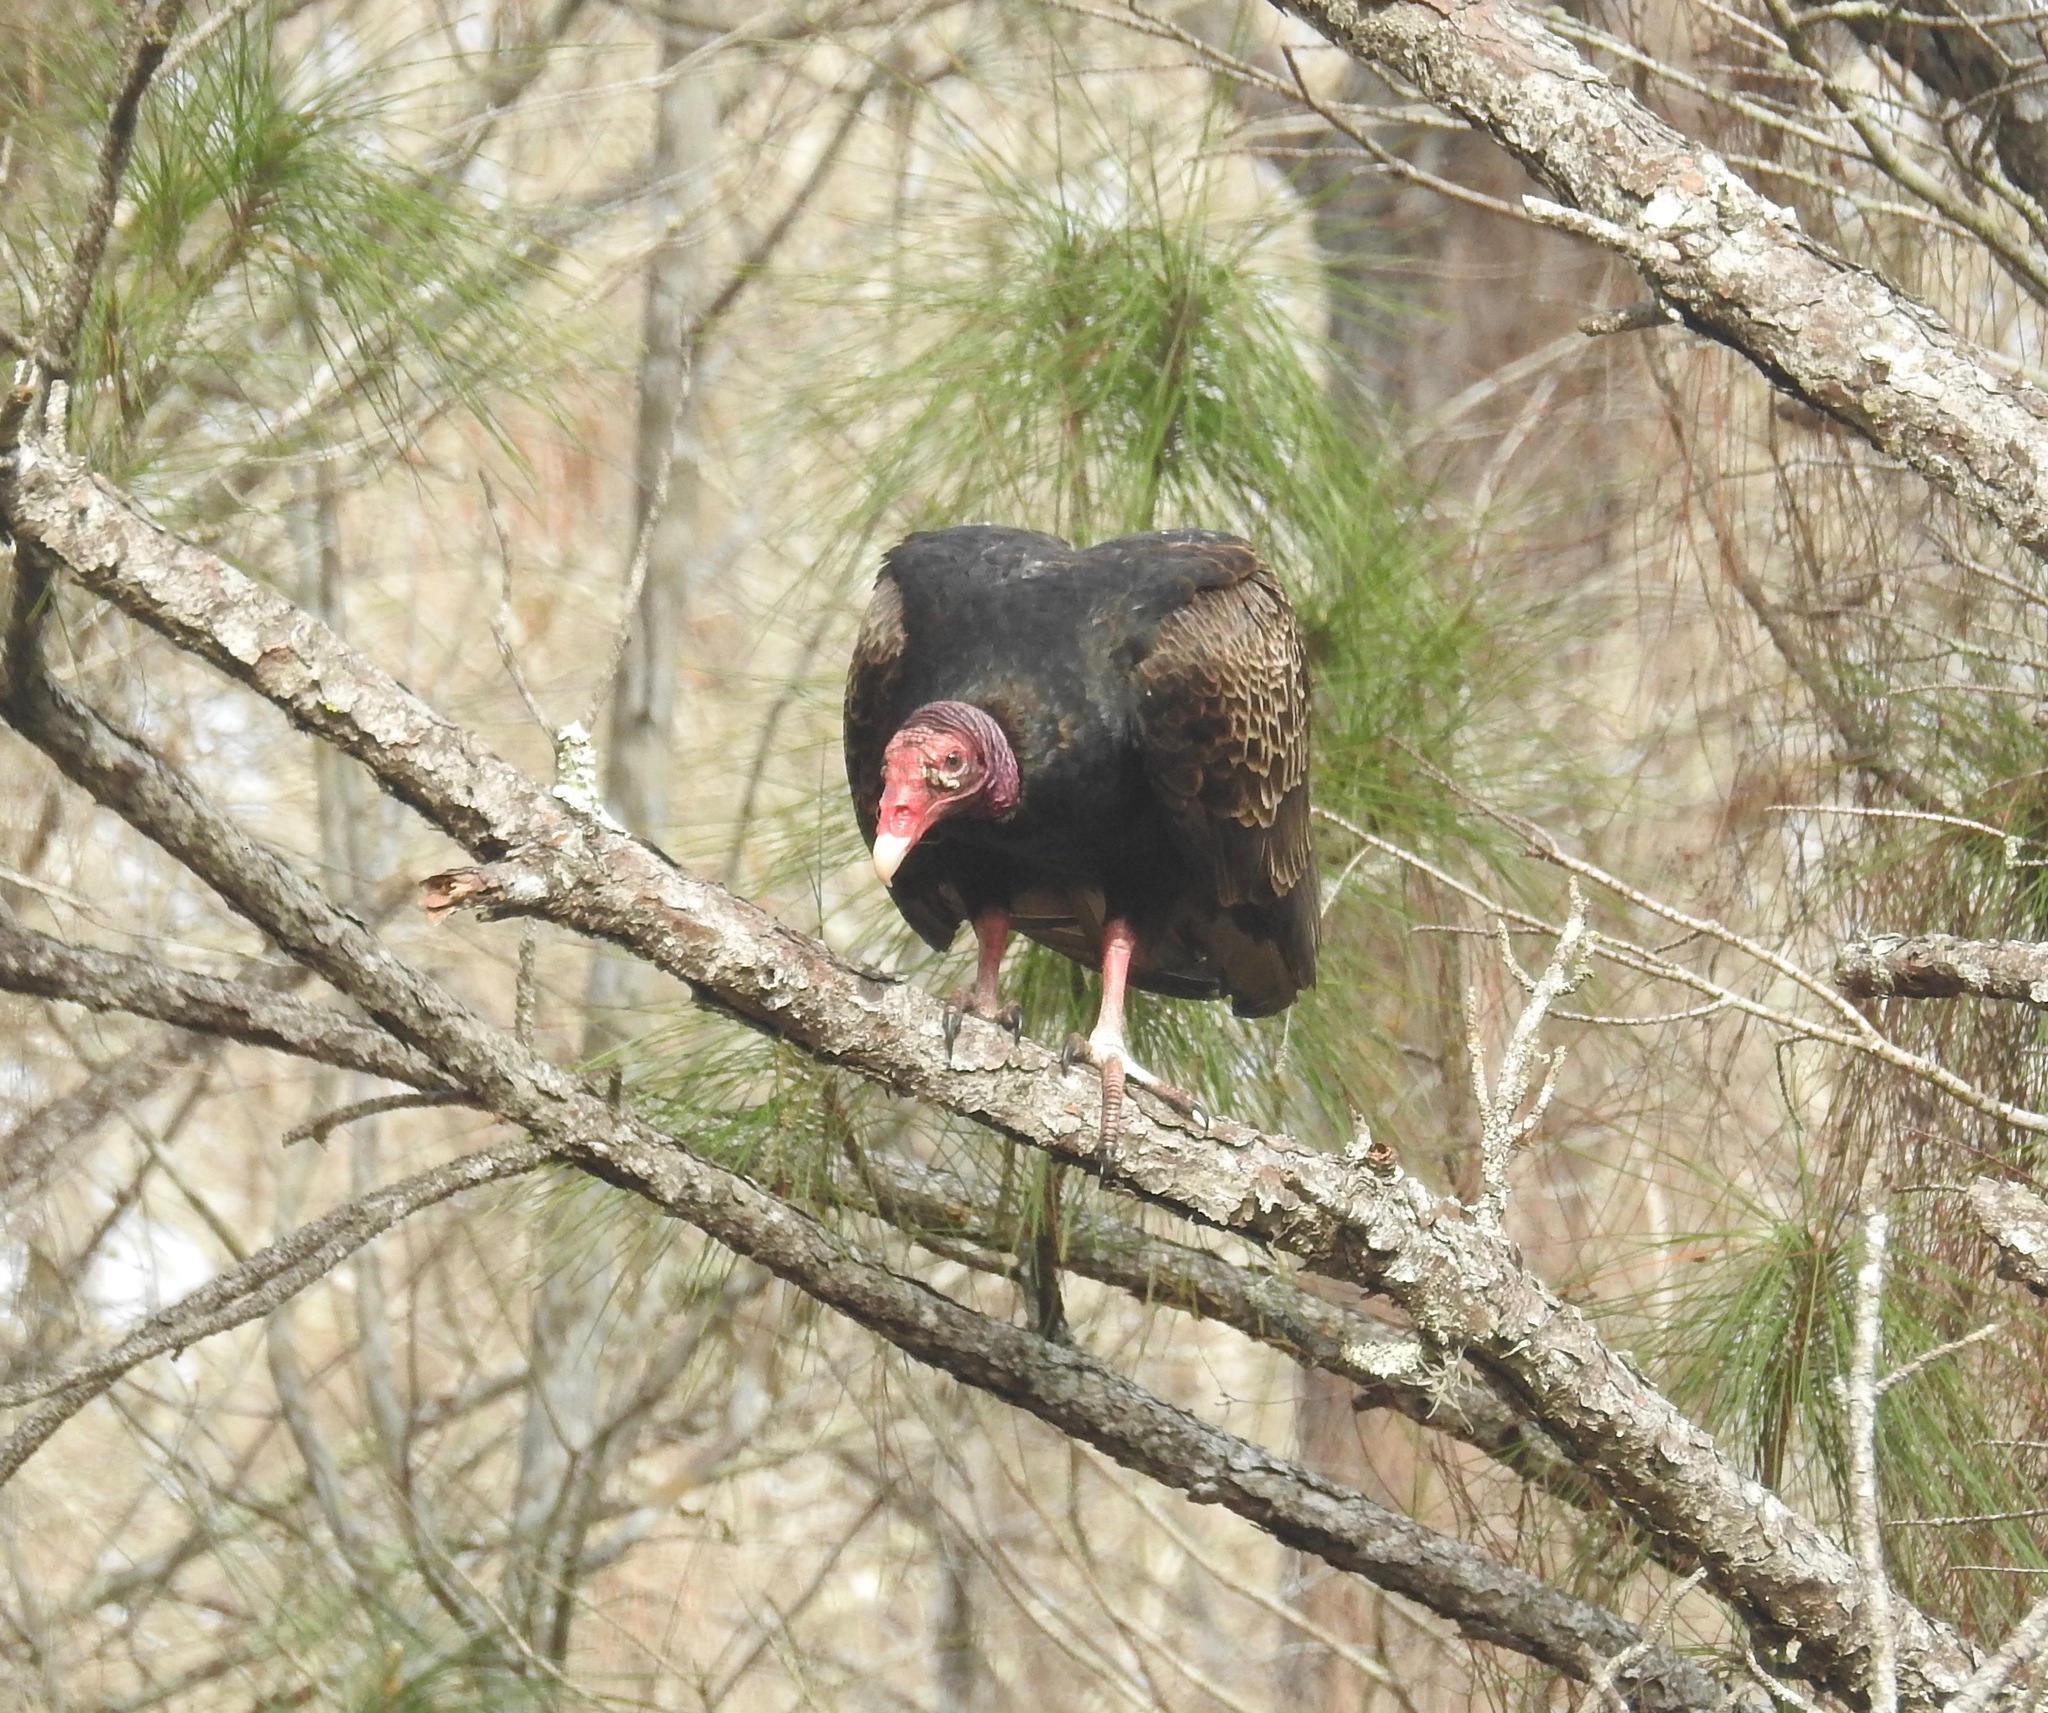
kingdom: Animalia
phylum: Chordata
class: Aves
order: Accipitriformes
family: Cathartidae
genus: Cathartes
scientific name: Cathartes aura
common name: Turkey vulture
